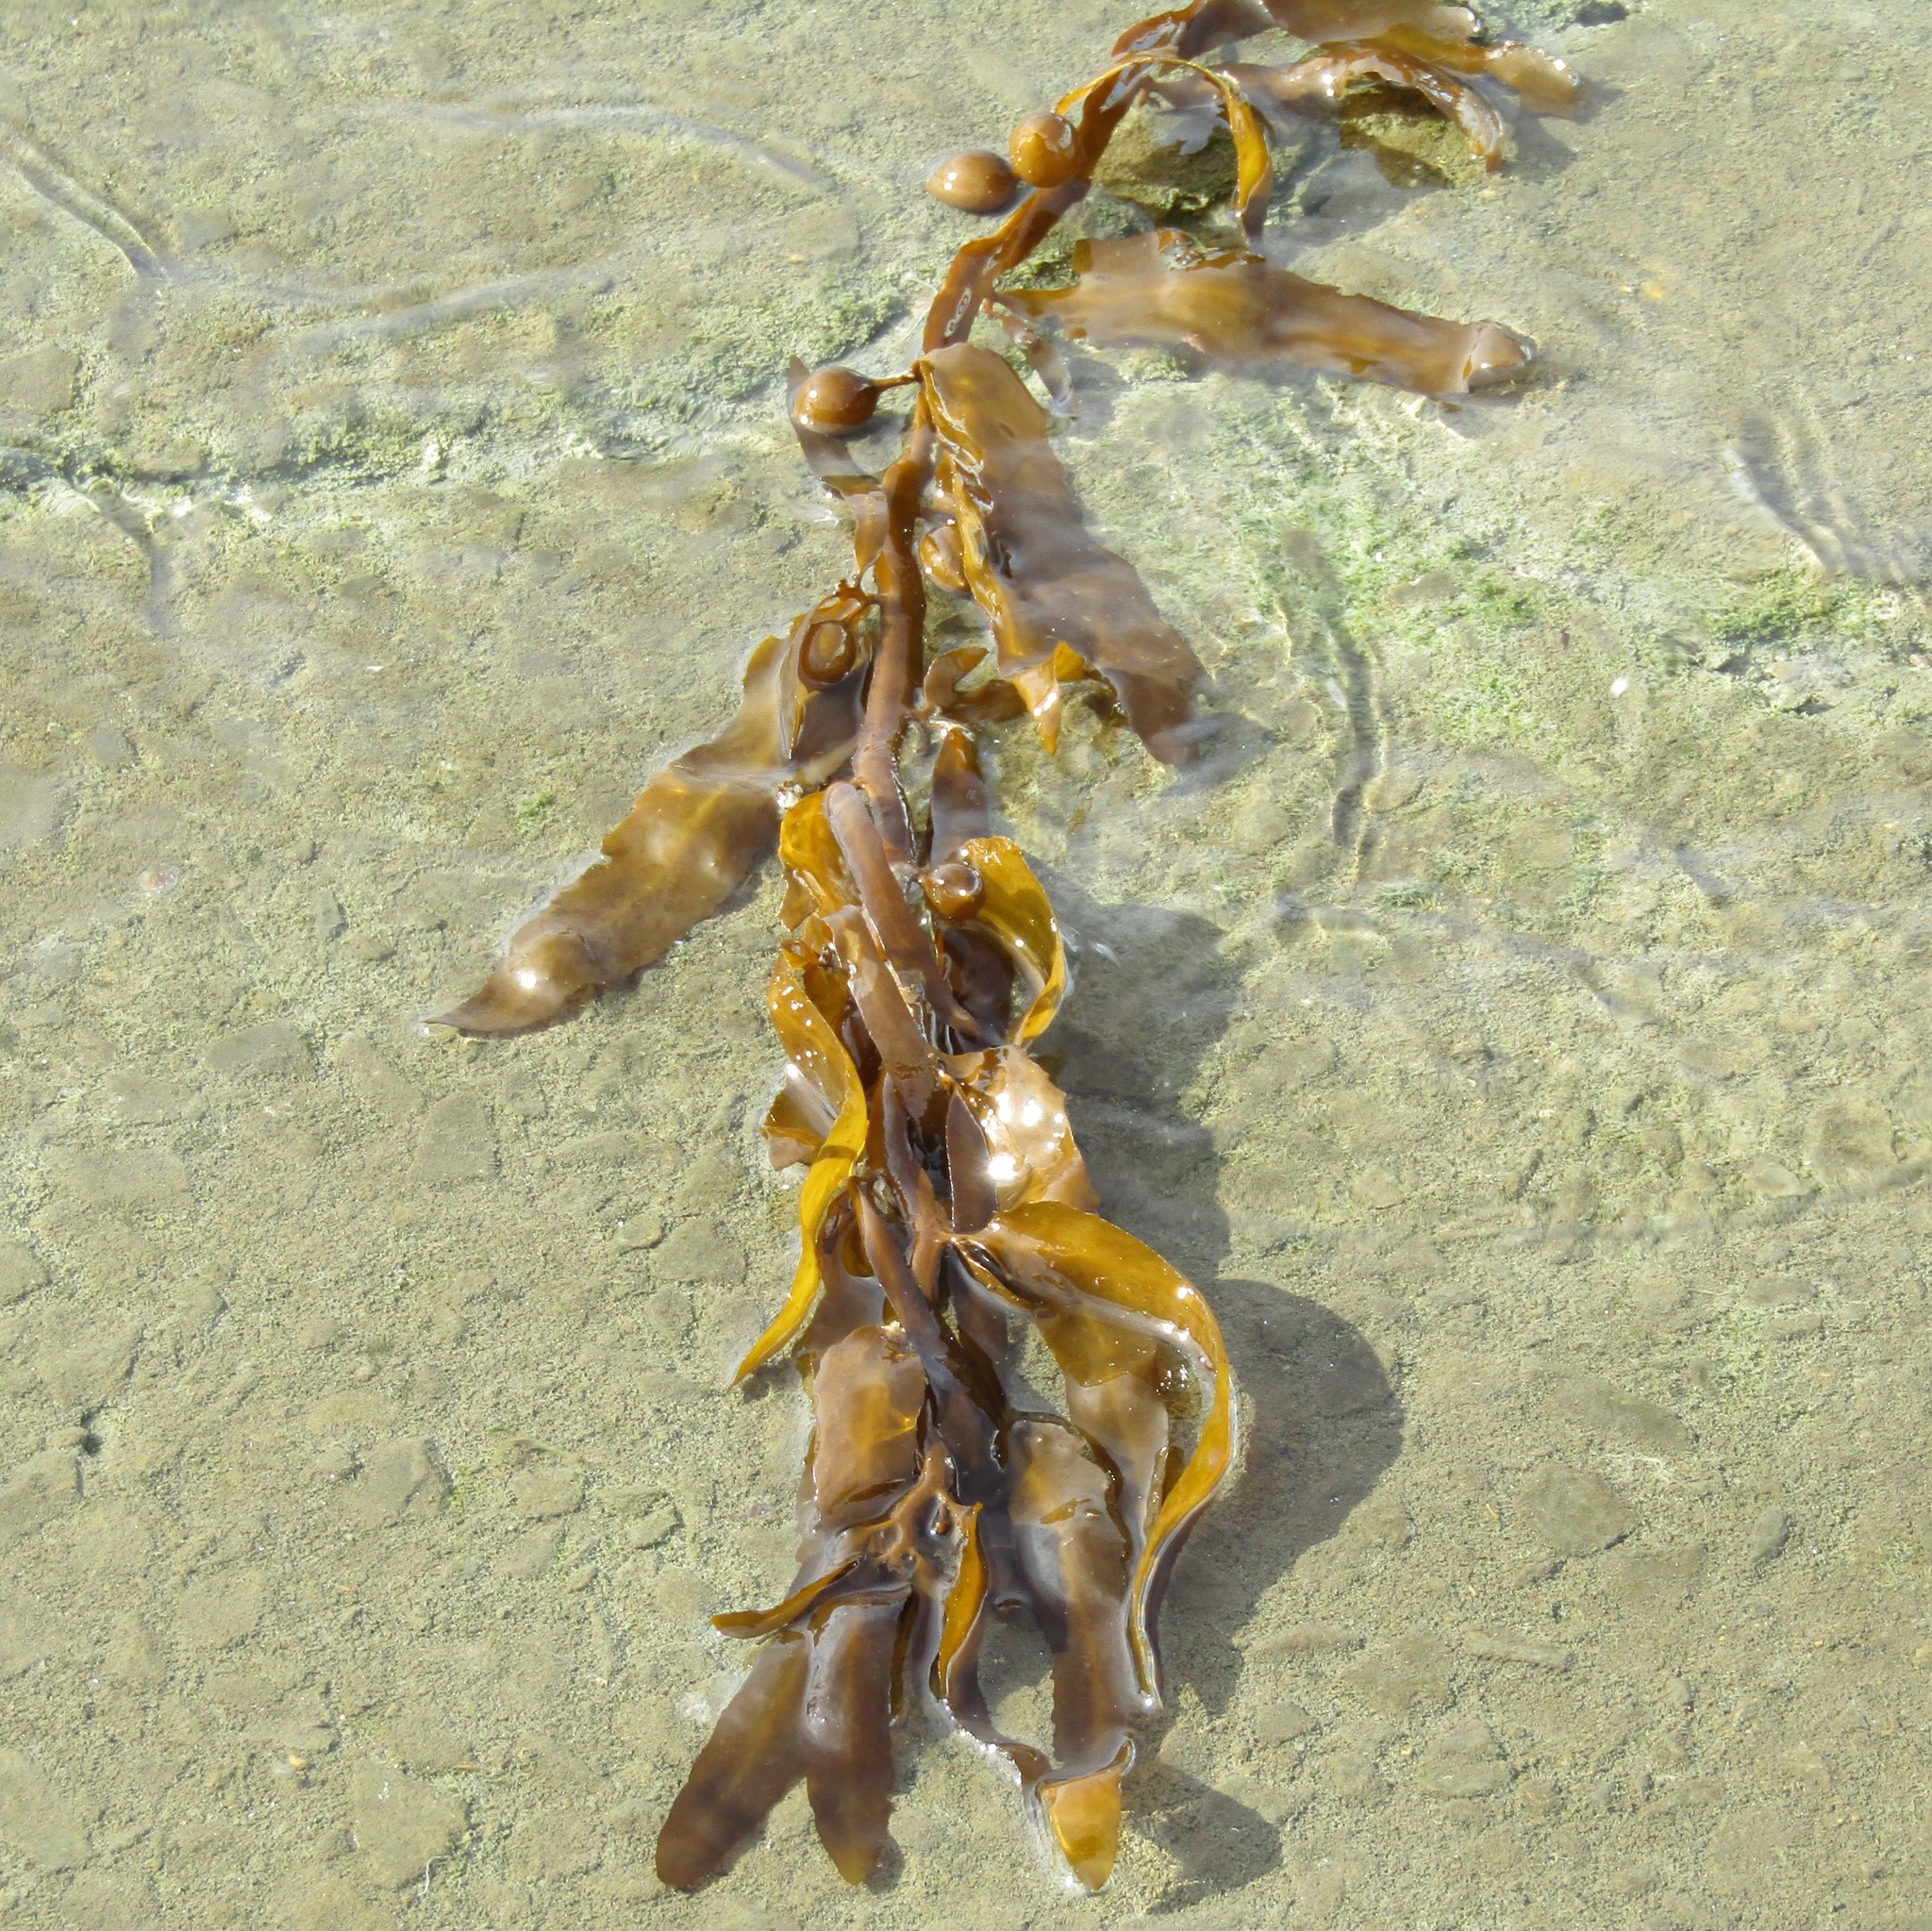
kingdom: Chromista
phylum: Ochrophyta
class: Phaeophyceae
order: Fucales
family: Sargassaceae
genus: Carpophyllum
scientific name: Carpophyllum flexuosum
